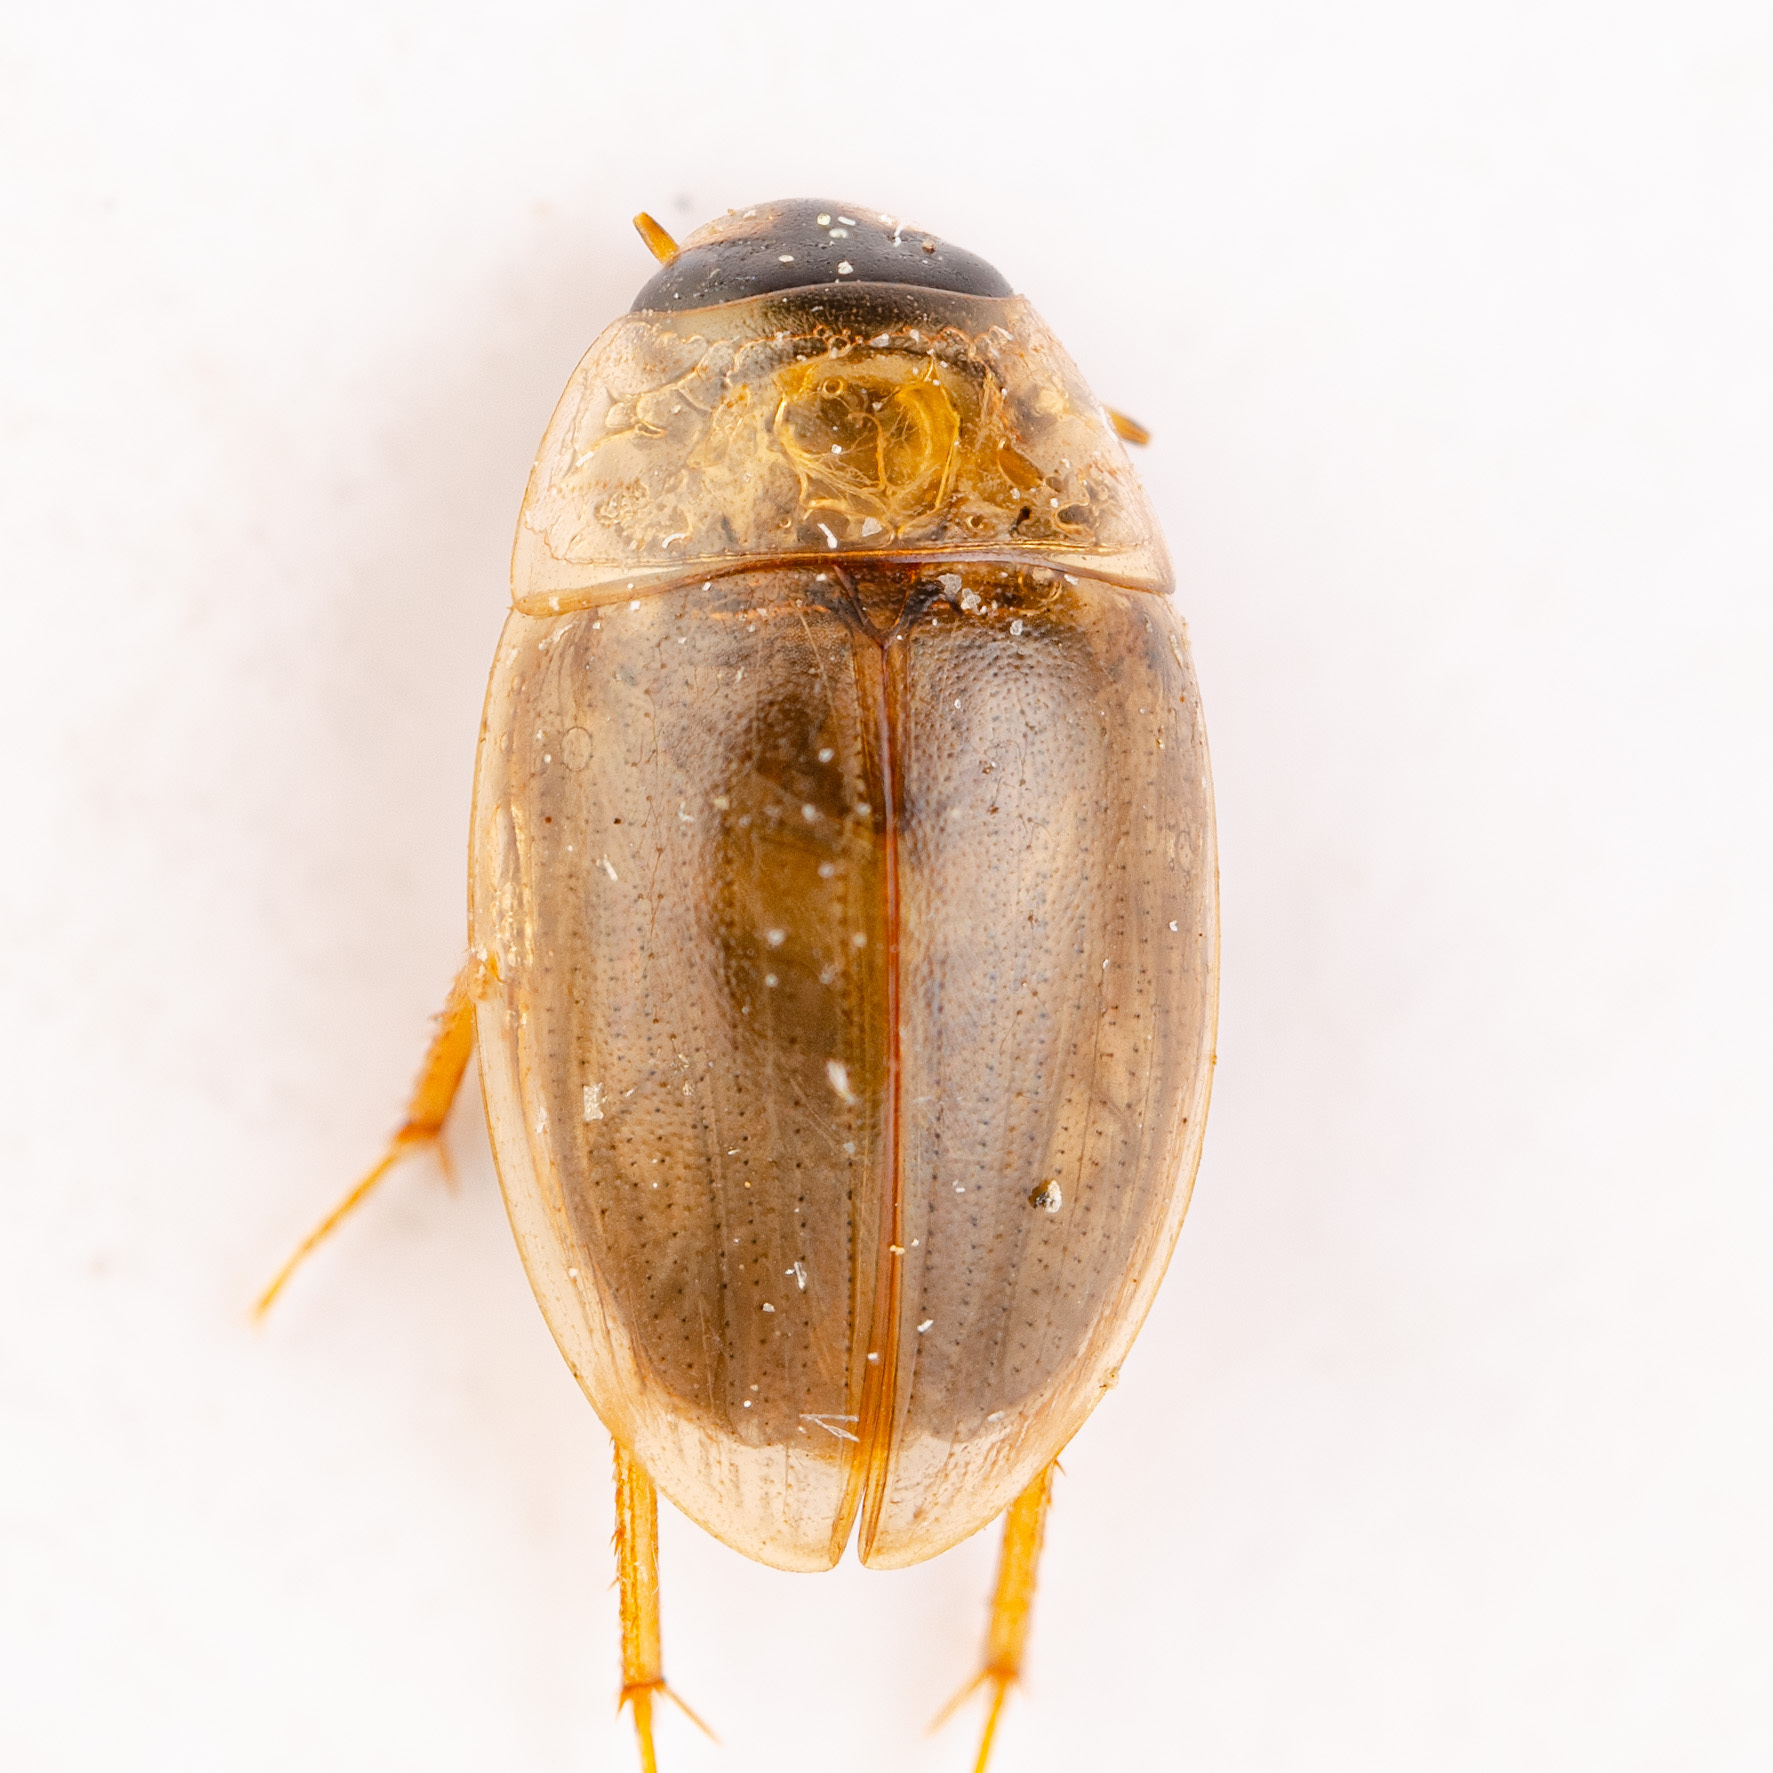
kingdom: Animalia
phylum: Arthropoda
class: Insecta
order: Coleoptera
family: Hydrophilidae
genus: Enochrus
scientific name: Enochrus
